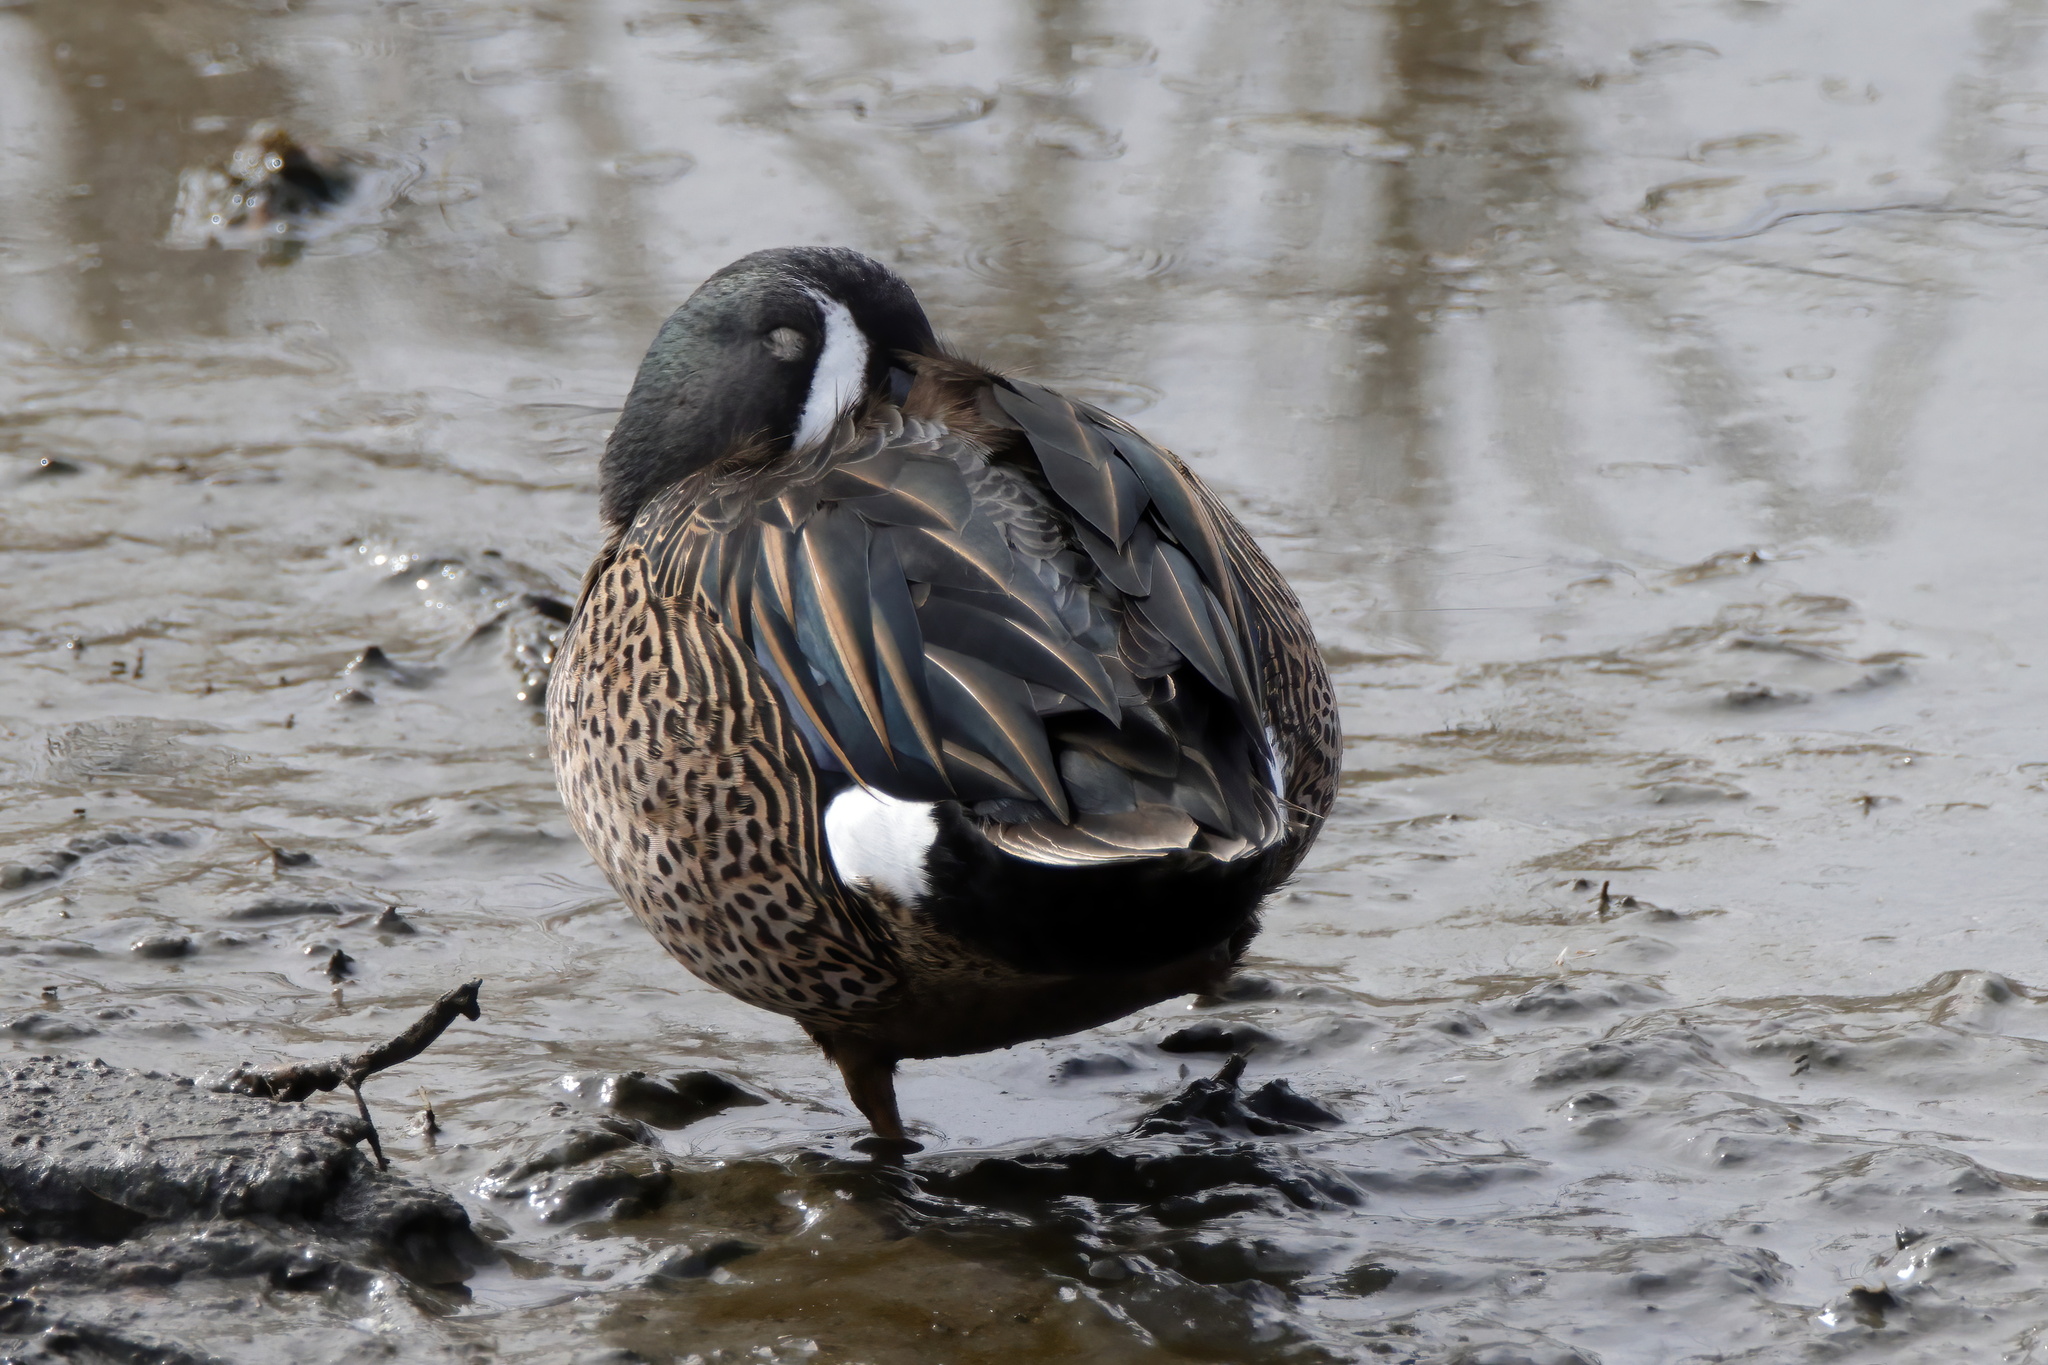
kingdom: Animalia
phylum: Chordata
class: Aves
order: Anseriformes
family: Anatidae
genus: Spatula
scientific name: Spatula discors
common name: Blue-winged teal
